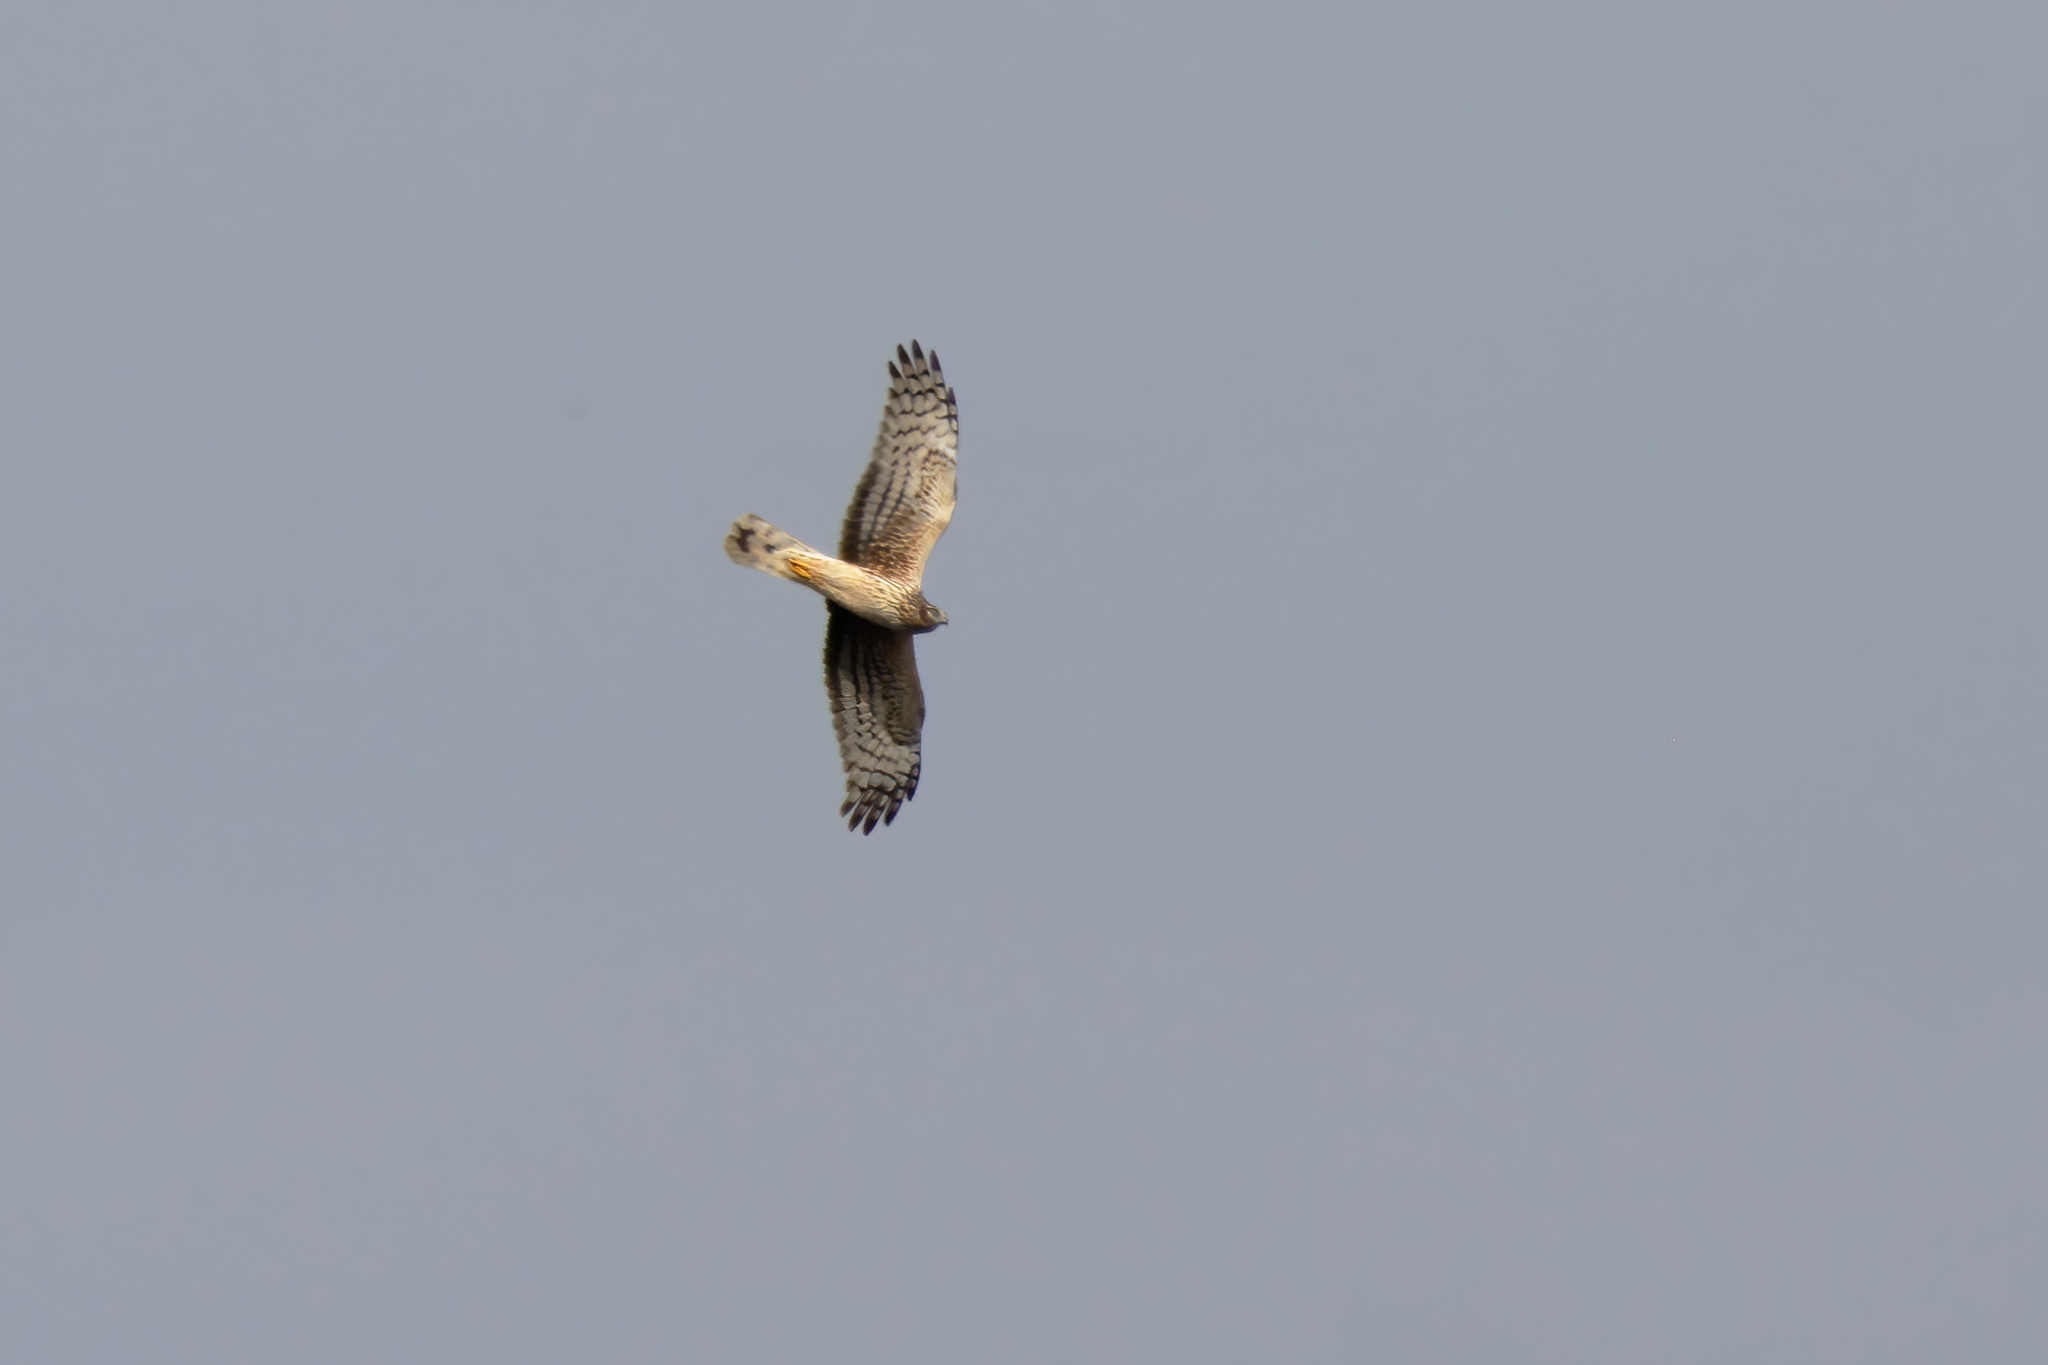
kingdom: Animalia
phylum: Chordata
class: Aves
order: Accipitriformes
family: Accipitridae
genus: Circus
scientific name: Circus cyaneus
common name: Hen harrier
